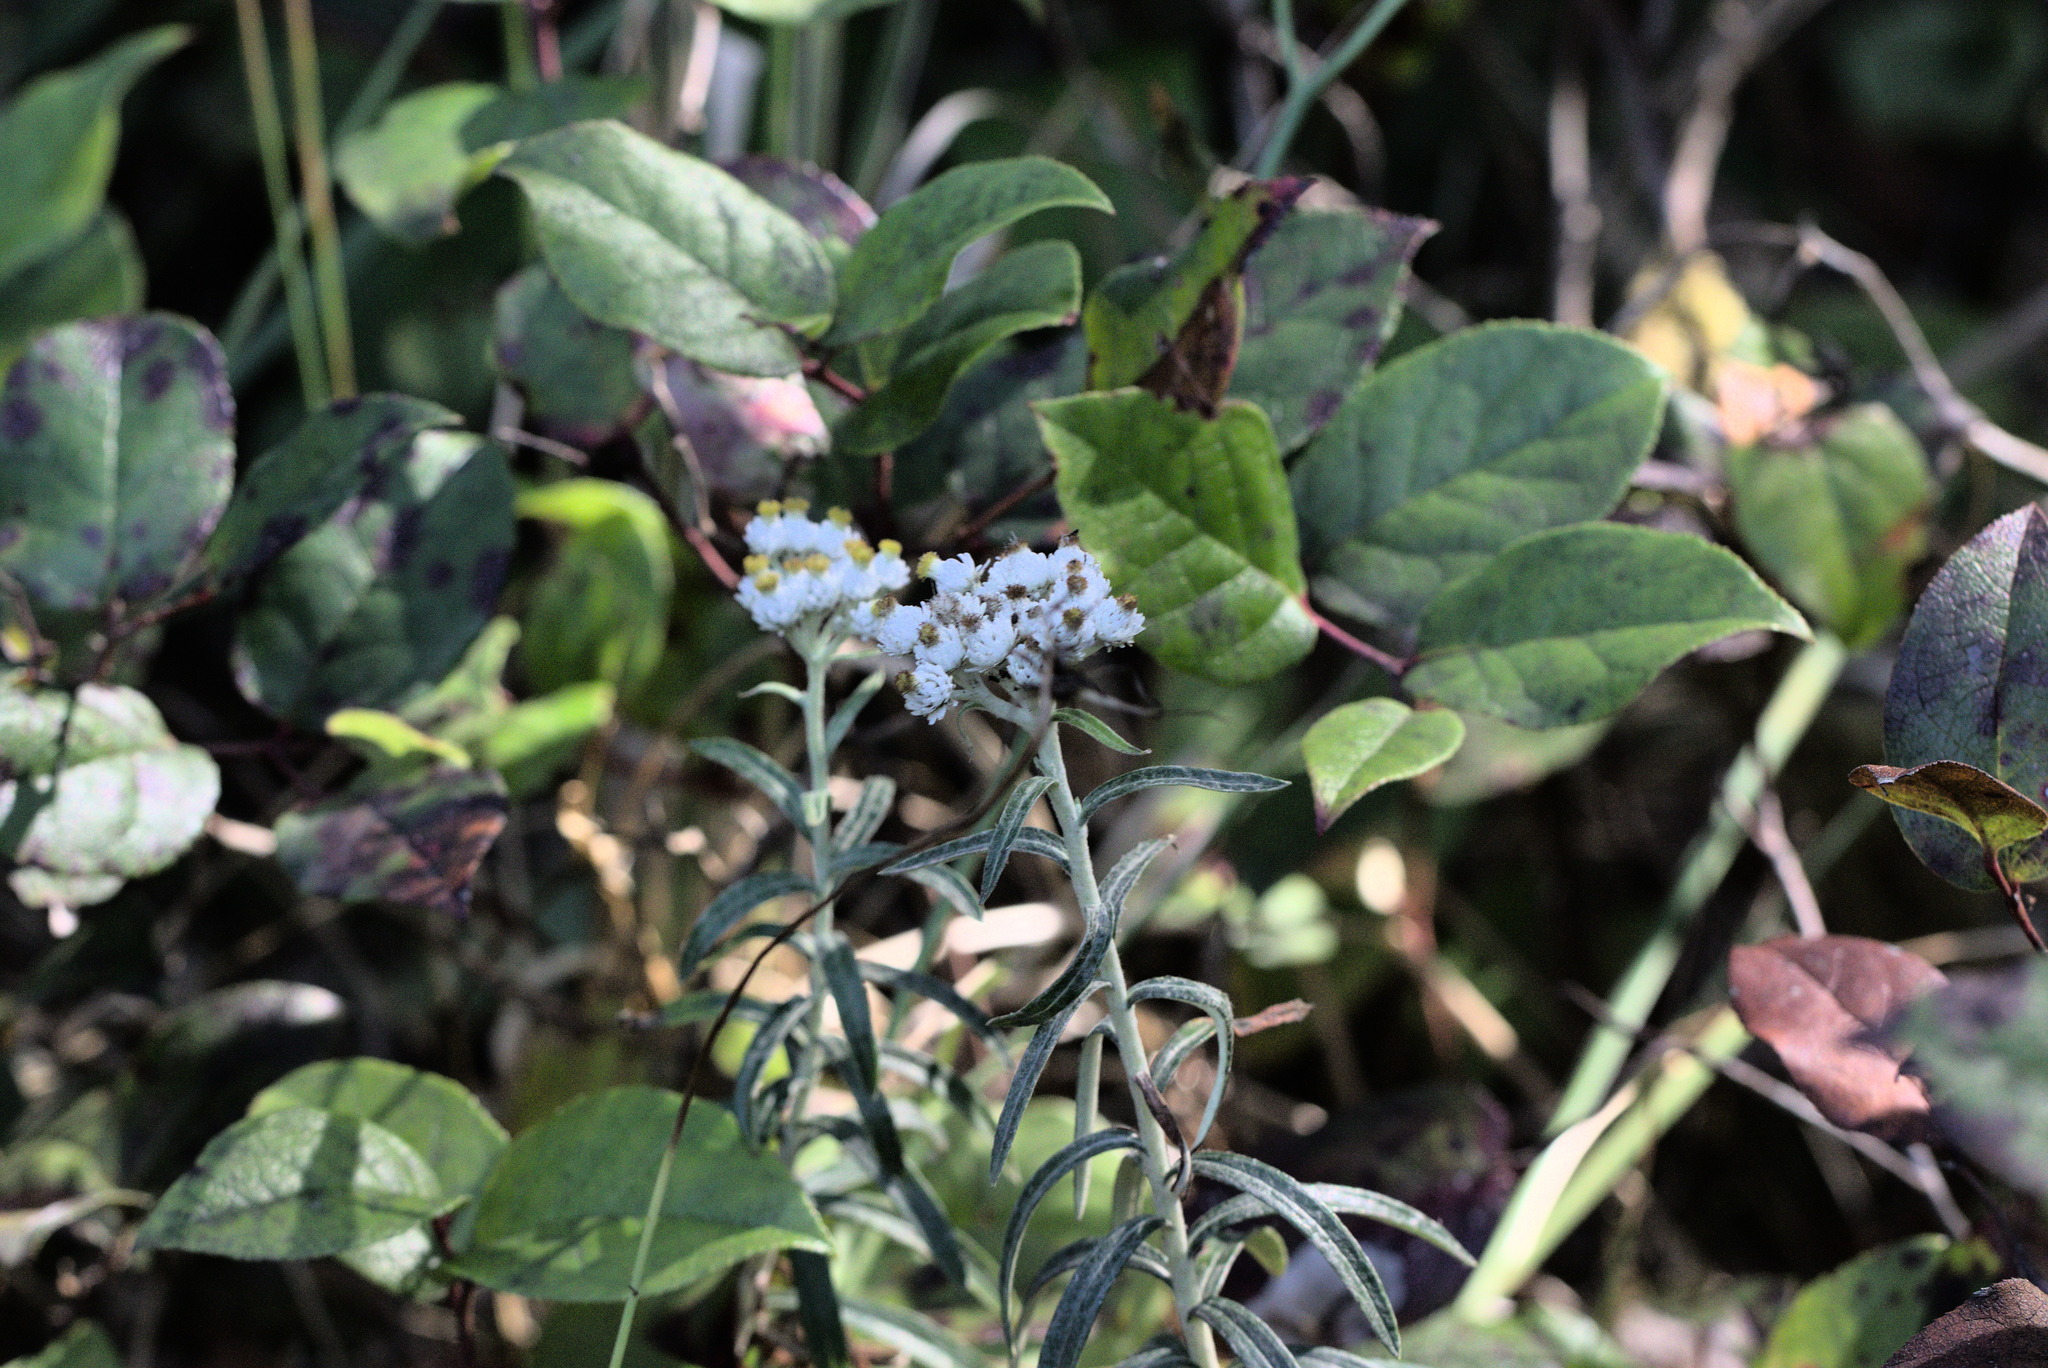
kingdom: Plantae
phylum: Tracheophyta
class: Magnoliopsida
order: Asterales
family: Asteraceae
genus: Anaphalis
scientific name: Anaphalis margaritacea
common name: Pearly everlasting
